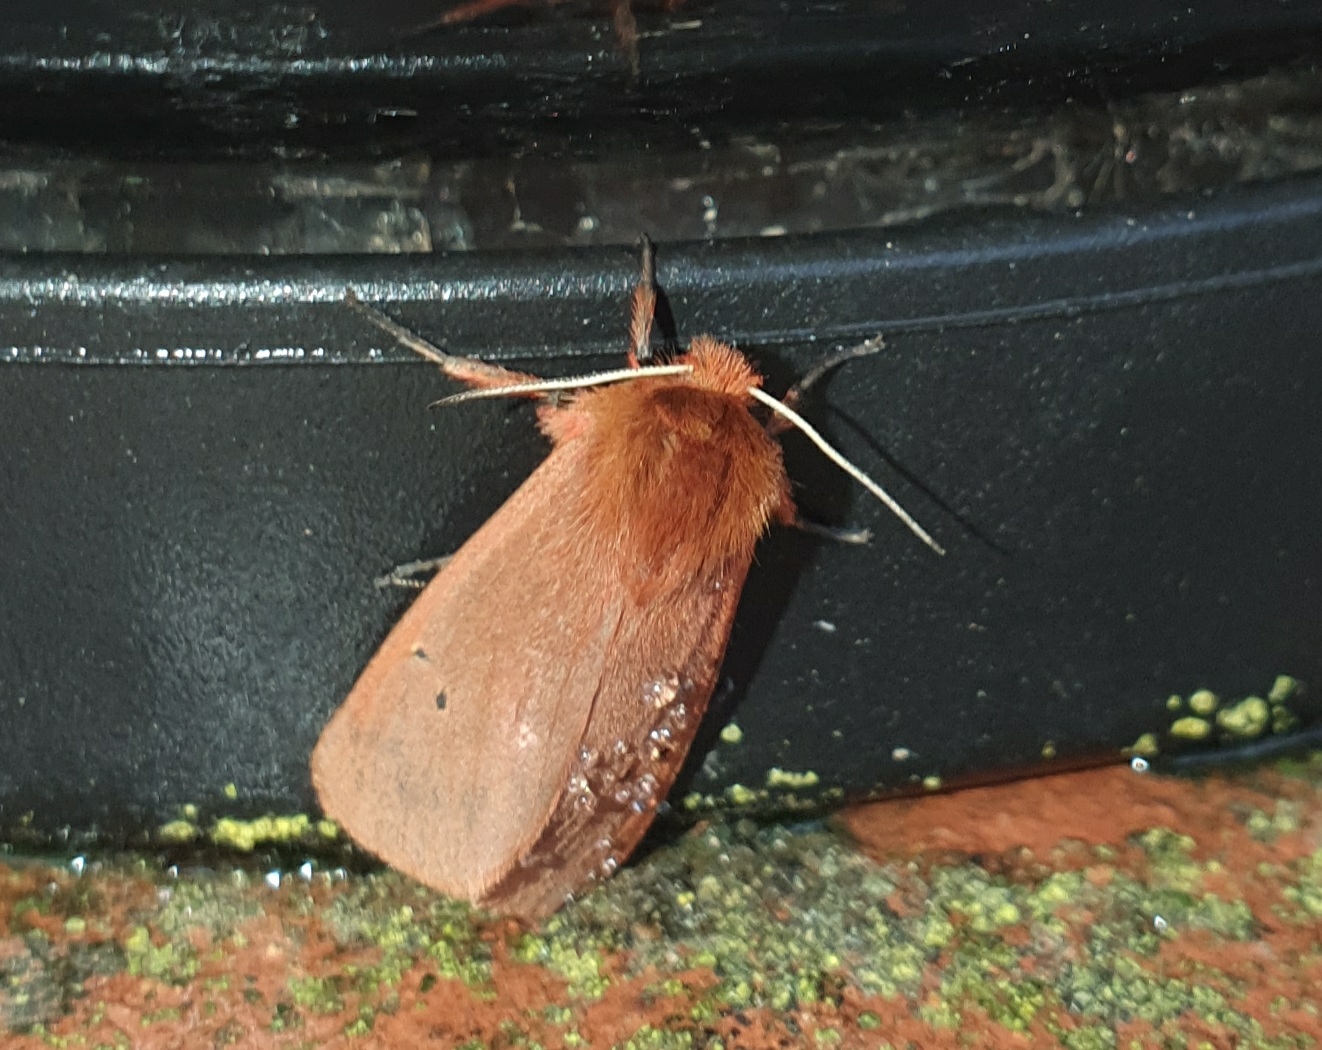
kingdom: Animalia
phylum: Arthropoda
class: Insecta
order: Lepidoptera
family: Erebidae
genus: Phragmatobia
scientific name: Phragmatobia fuliginosa
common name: Ruby tiger
